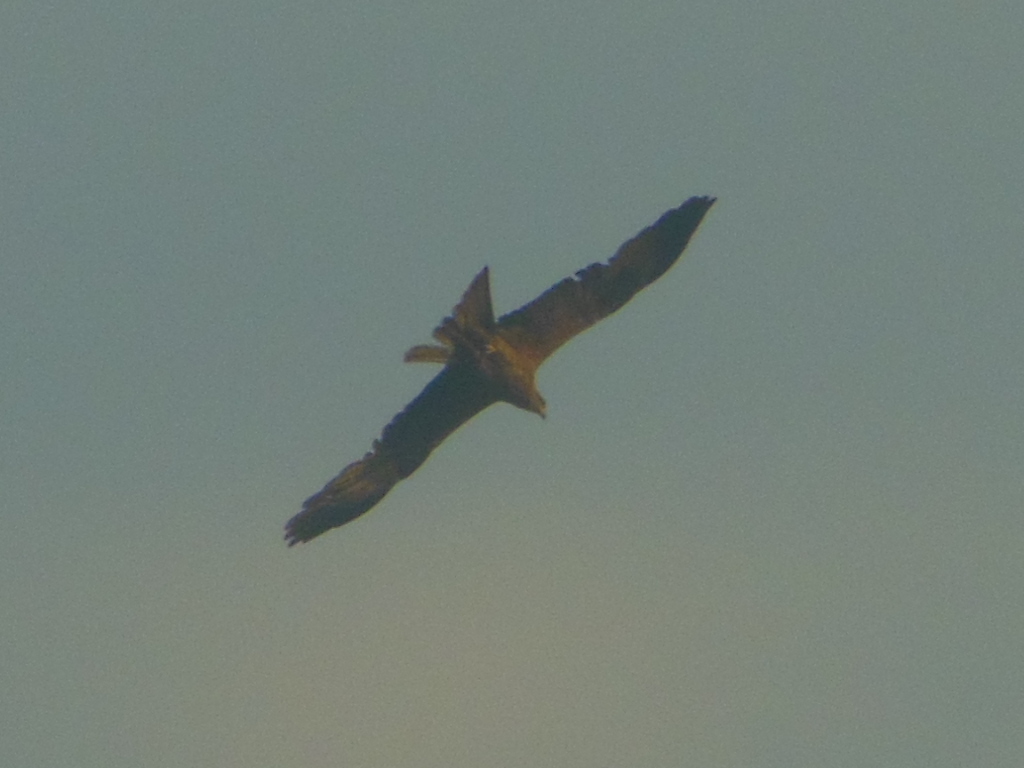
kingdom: Animalia
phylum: Chordata
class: Aves
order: Accipitriformes
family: Accipitridae
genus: Milvus
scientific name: Milvus migrans
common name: Black kite
